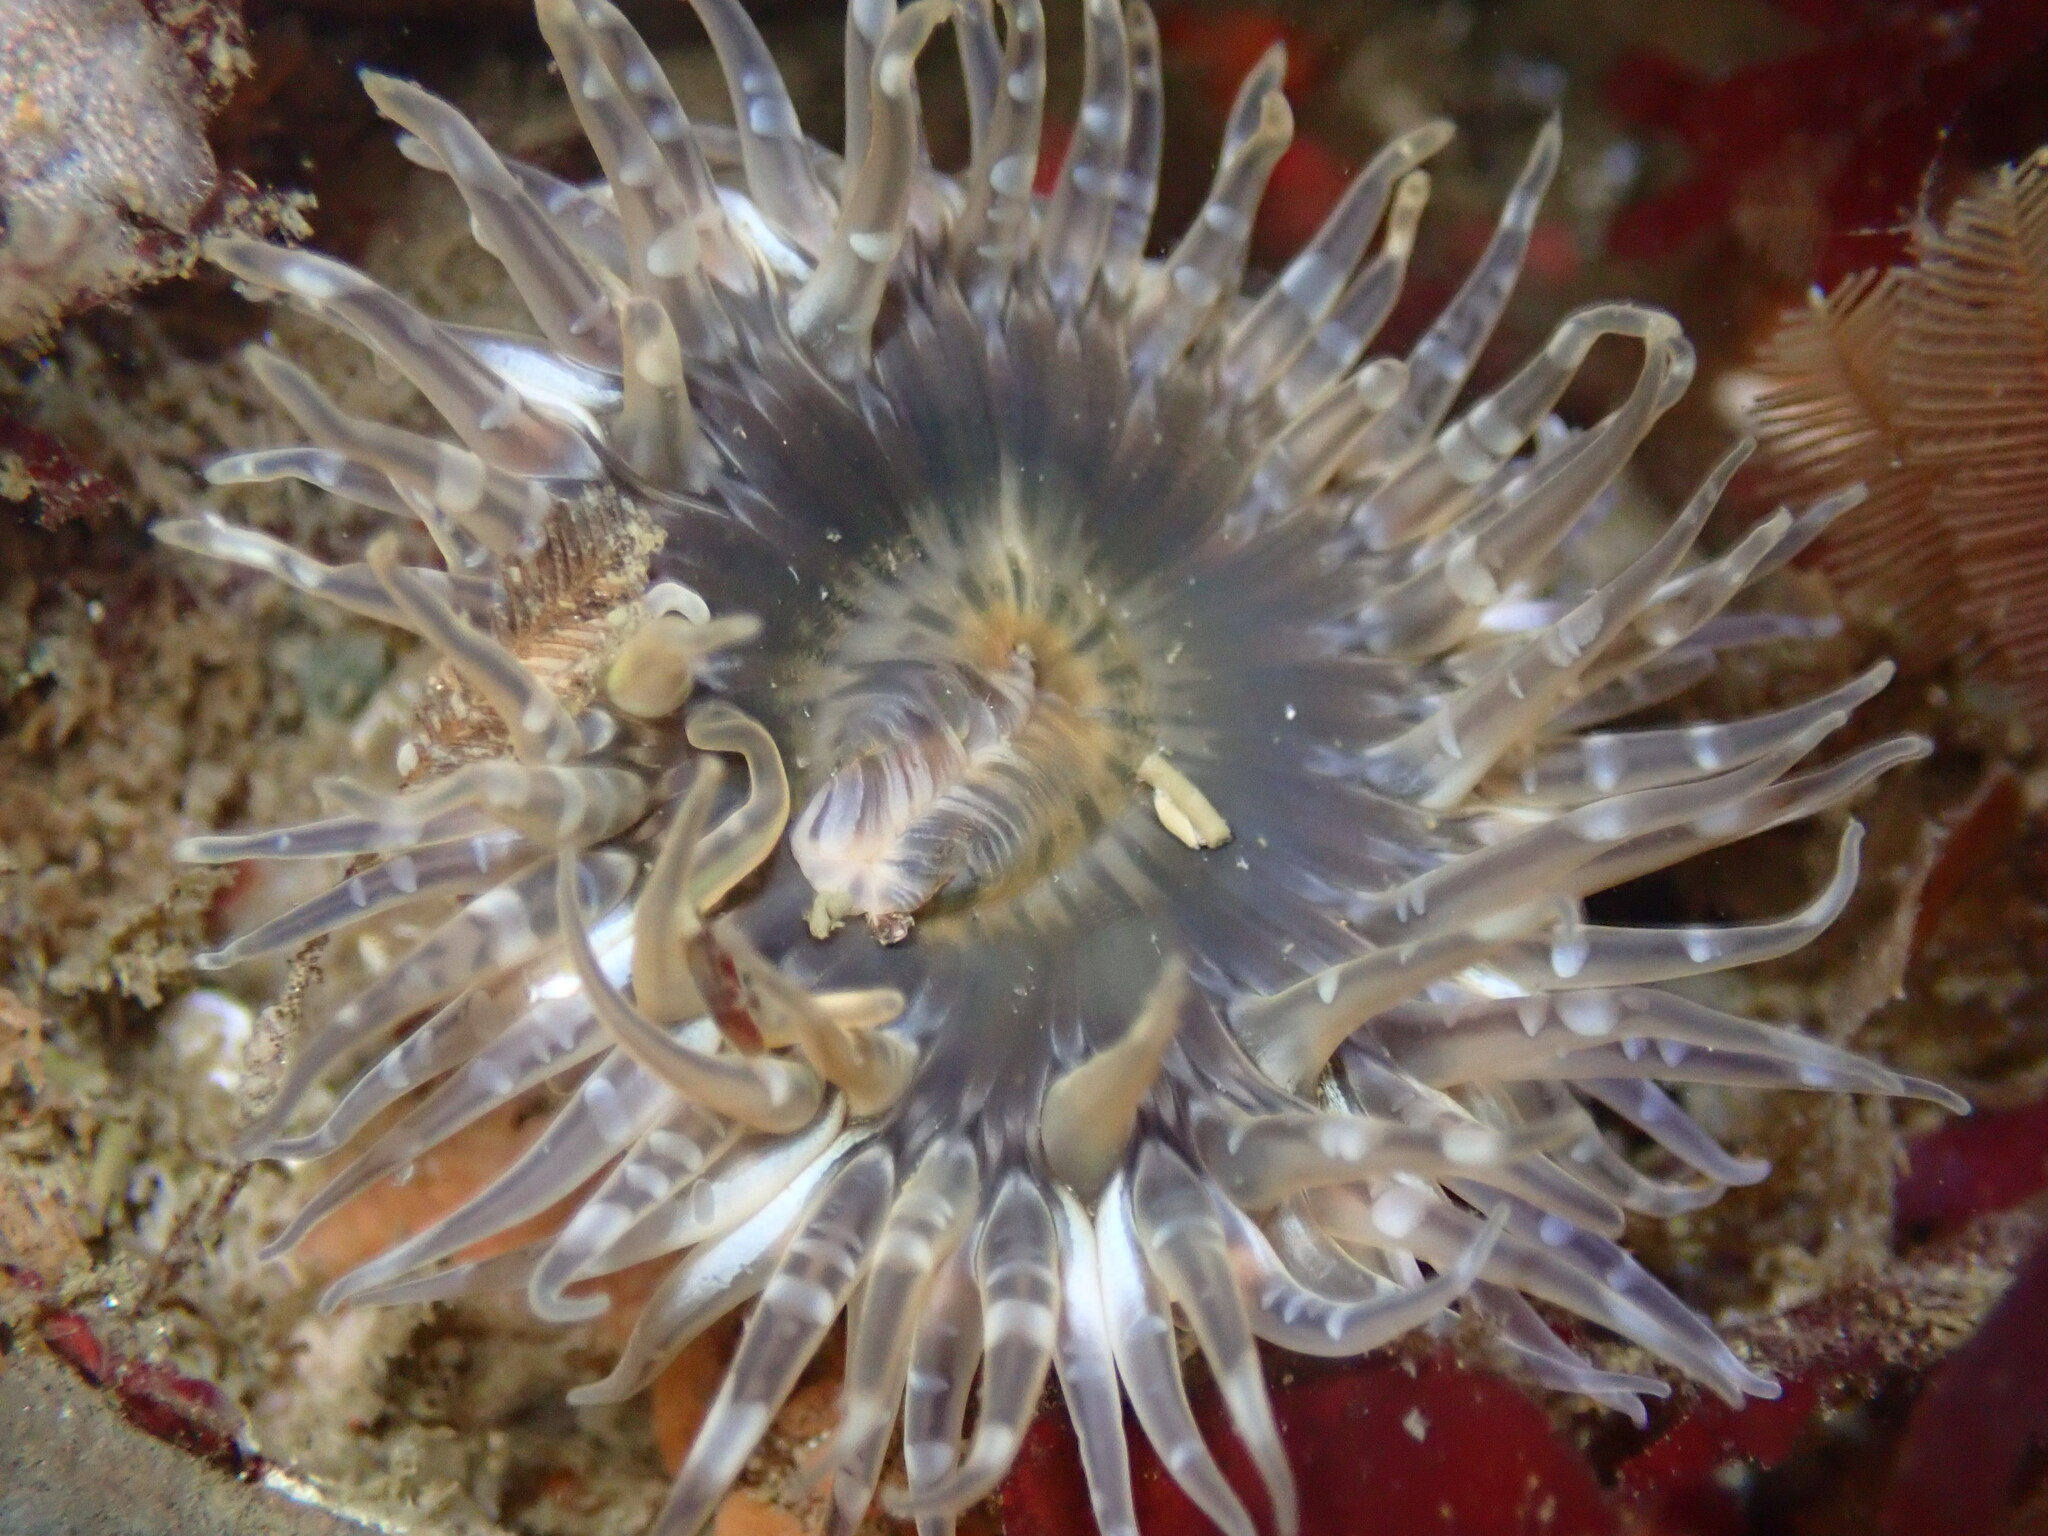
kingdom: Animalia
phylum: Cnidaria
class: Anthozoa
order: Actiniaria
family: Actiniidae
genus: Anthopleura
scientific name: Anthopleura artemisia
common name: Buried sea anemone
